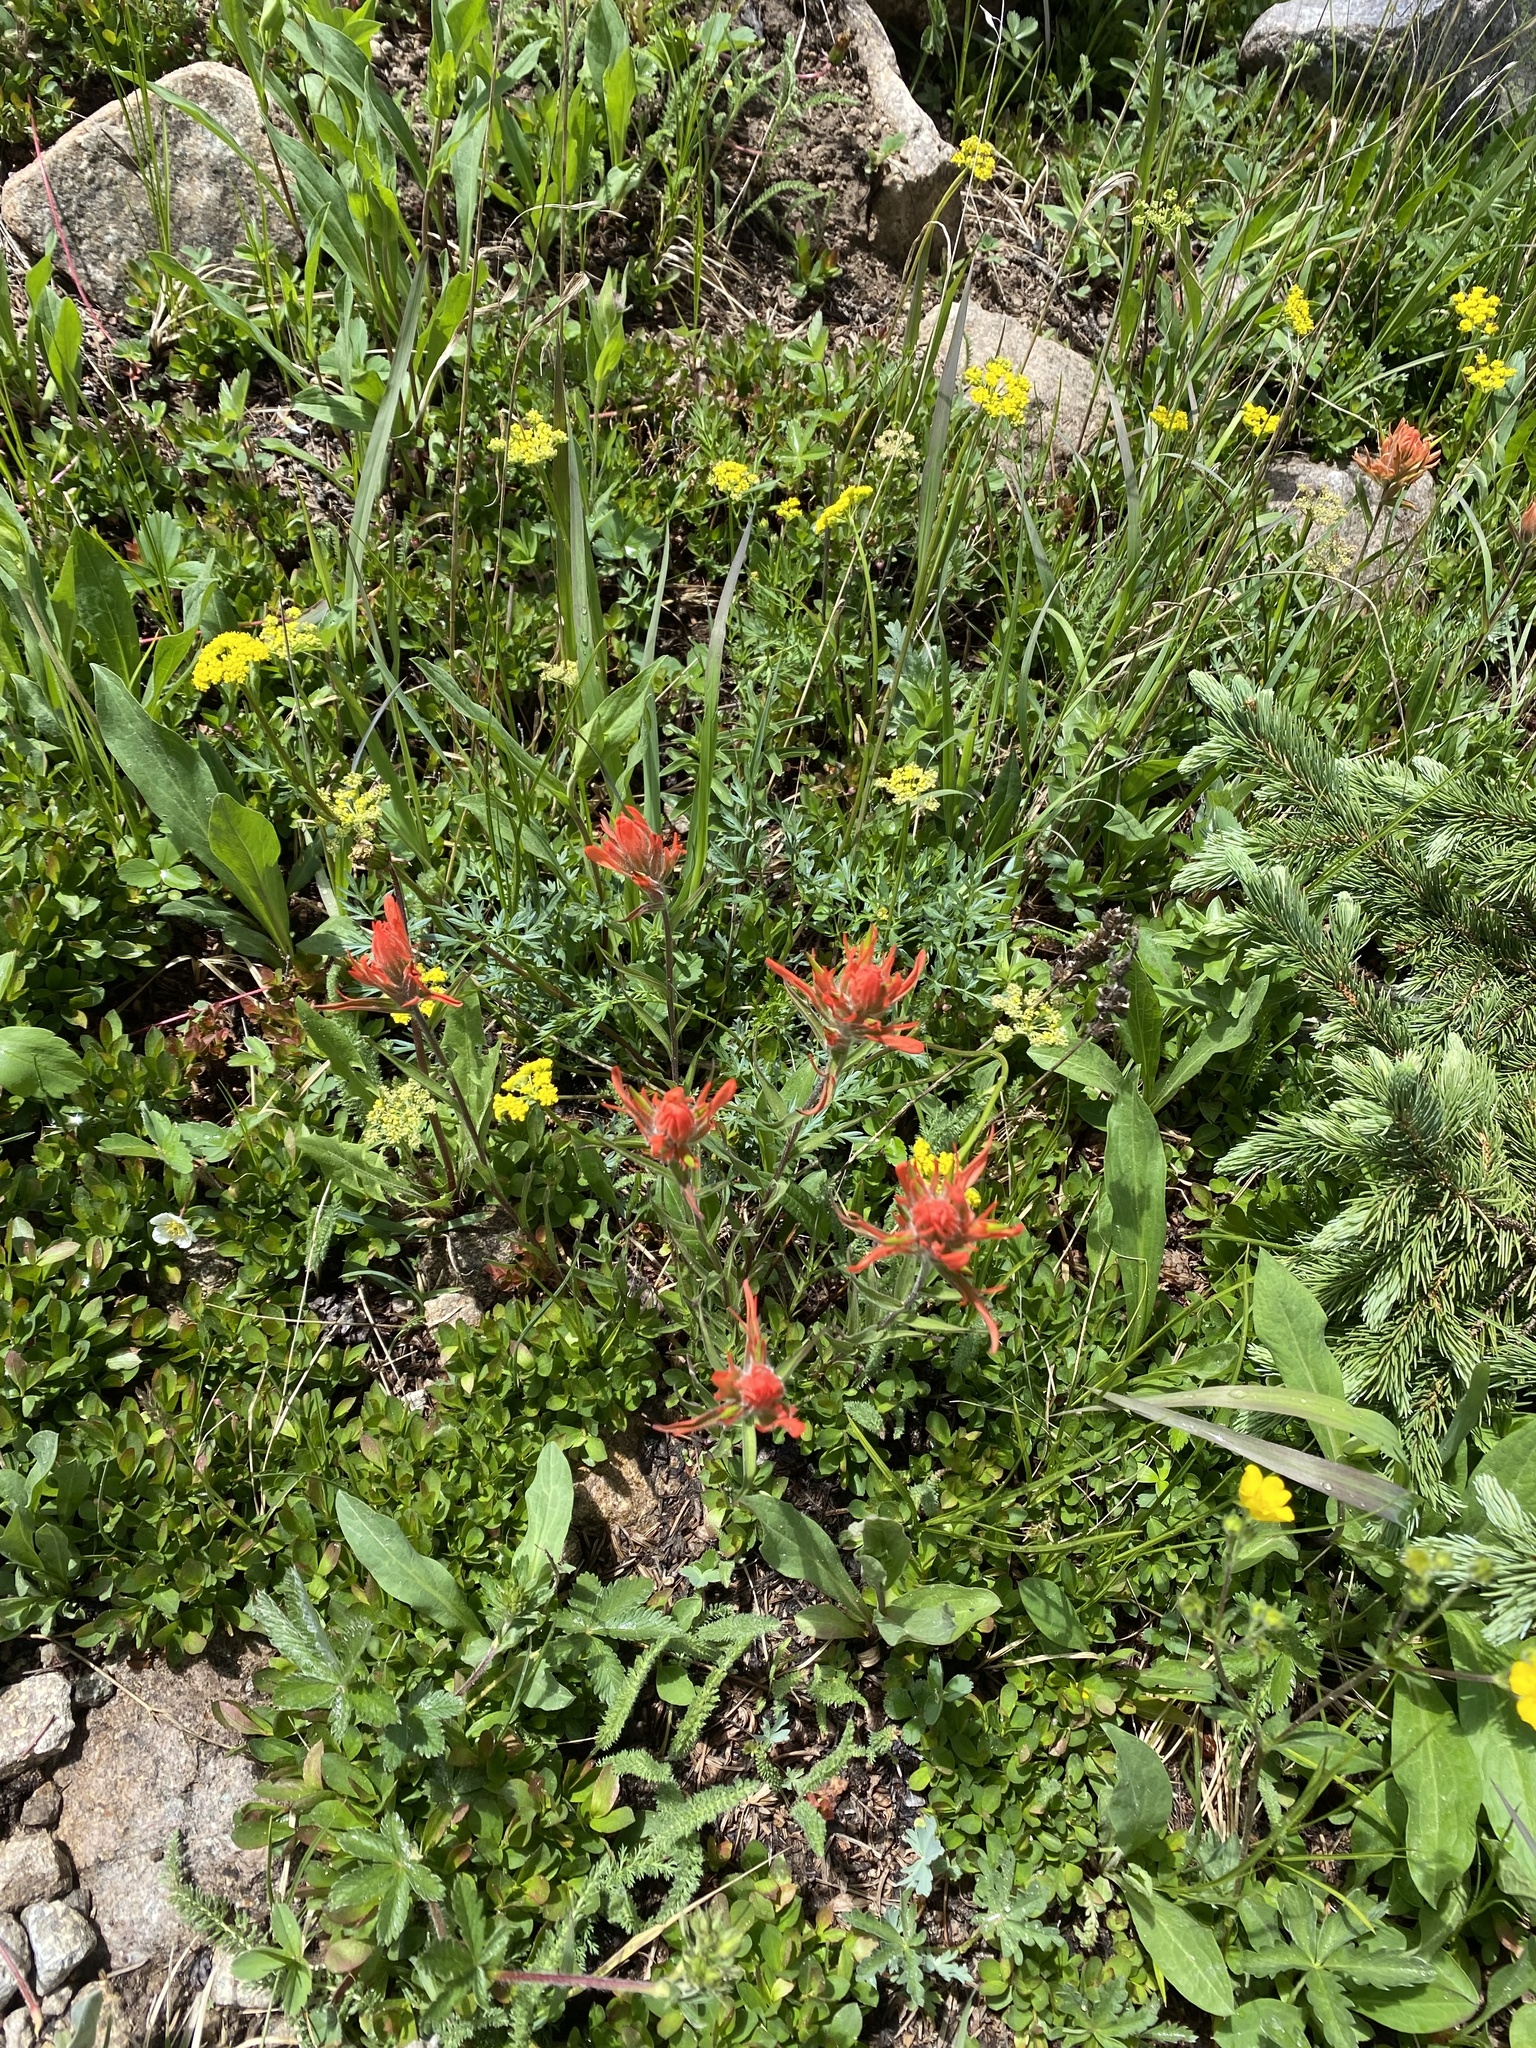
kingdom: Plantae
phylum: Tracheophyta
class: Magnoliopsida
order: Lamiales
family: Orobanchaceae
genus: Castilleja
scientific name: Castilleja miniata
